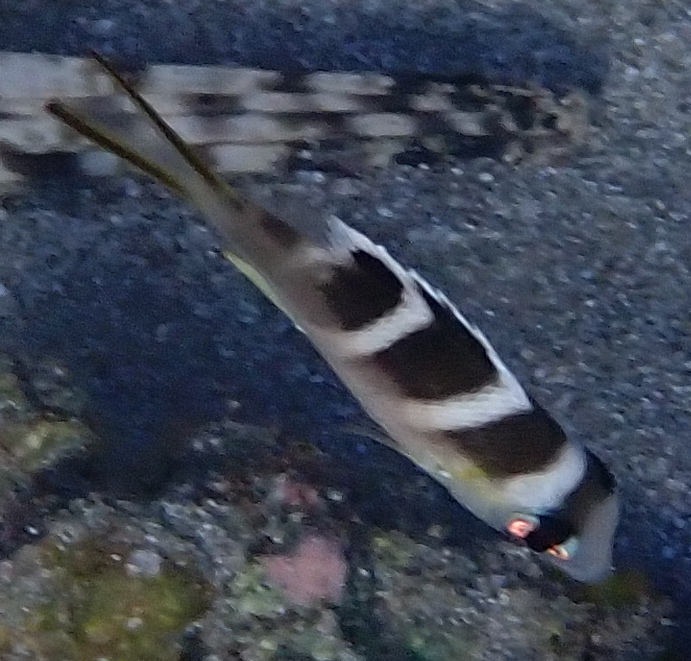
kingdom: Animalia
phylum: Chordata
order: Perciformes
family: Lethrinidae
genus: Monotaxis
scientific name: Monotaxis grandoculis
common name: Bigeye emperor
